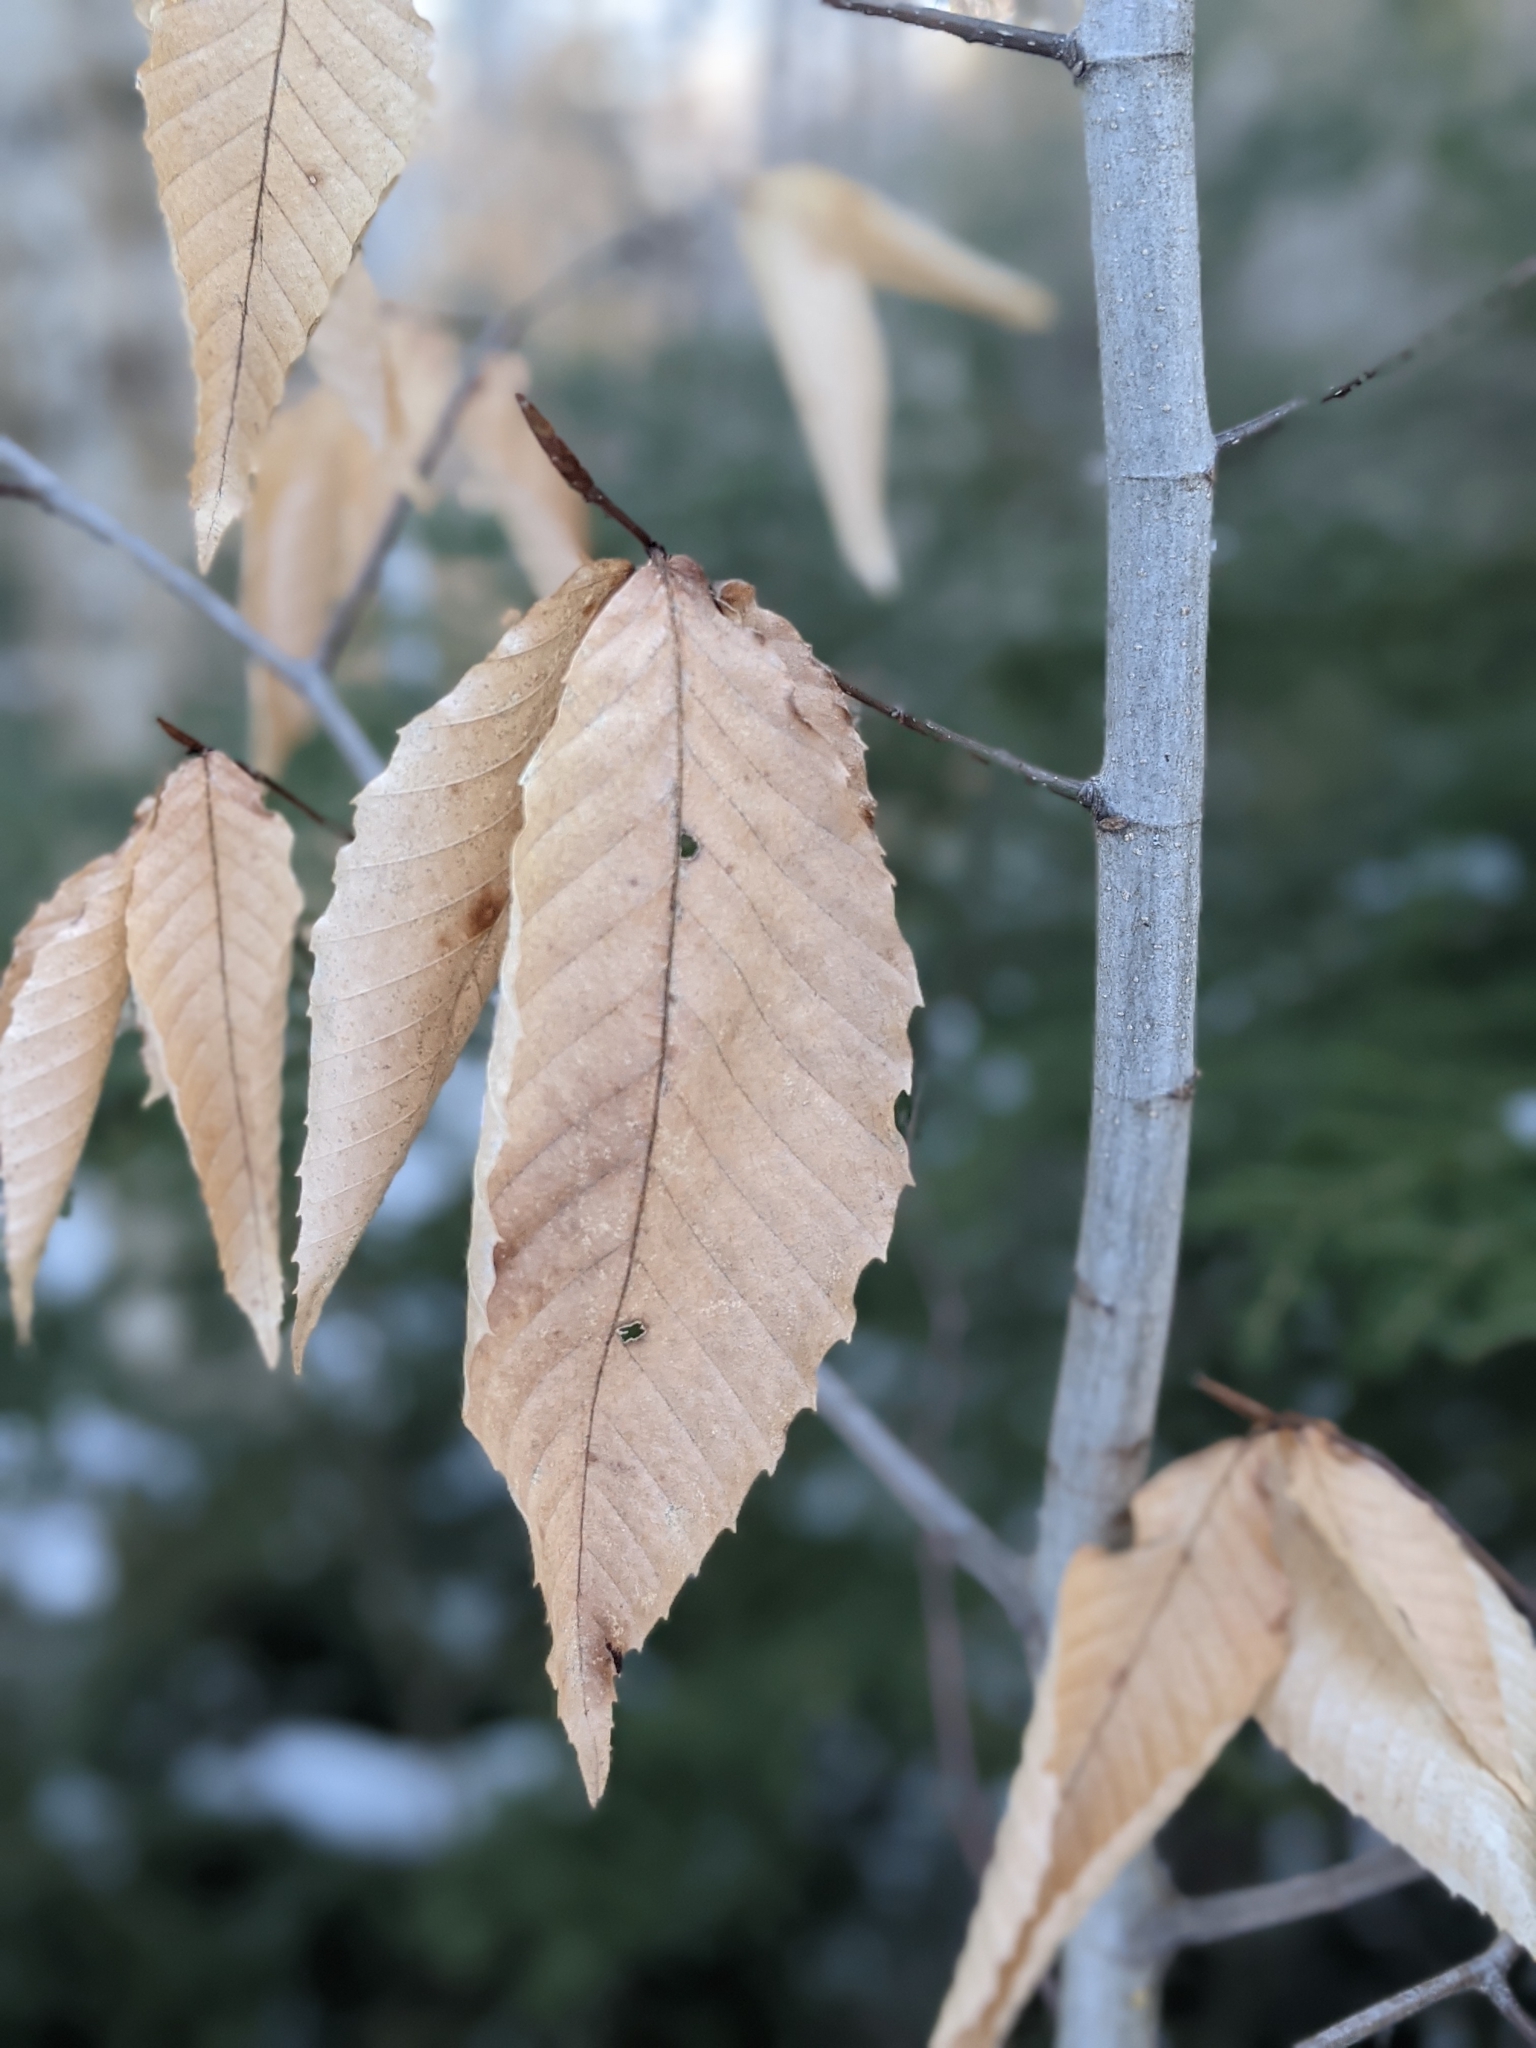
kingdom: Plantae
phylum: Tracheophyta
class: Magnoliopsida
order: Fagales
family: Fagaceae
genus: Fagus
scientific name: Fagus grandifolia
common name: American beech
